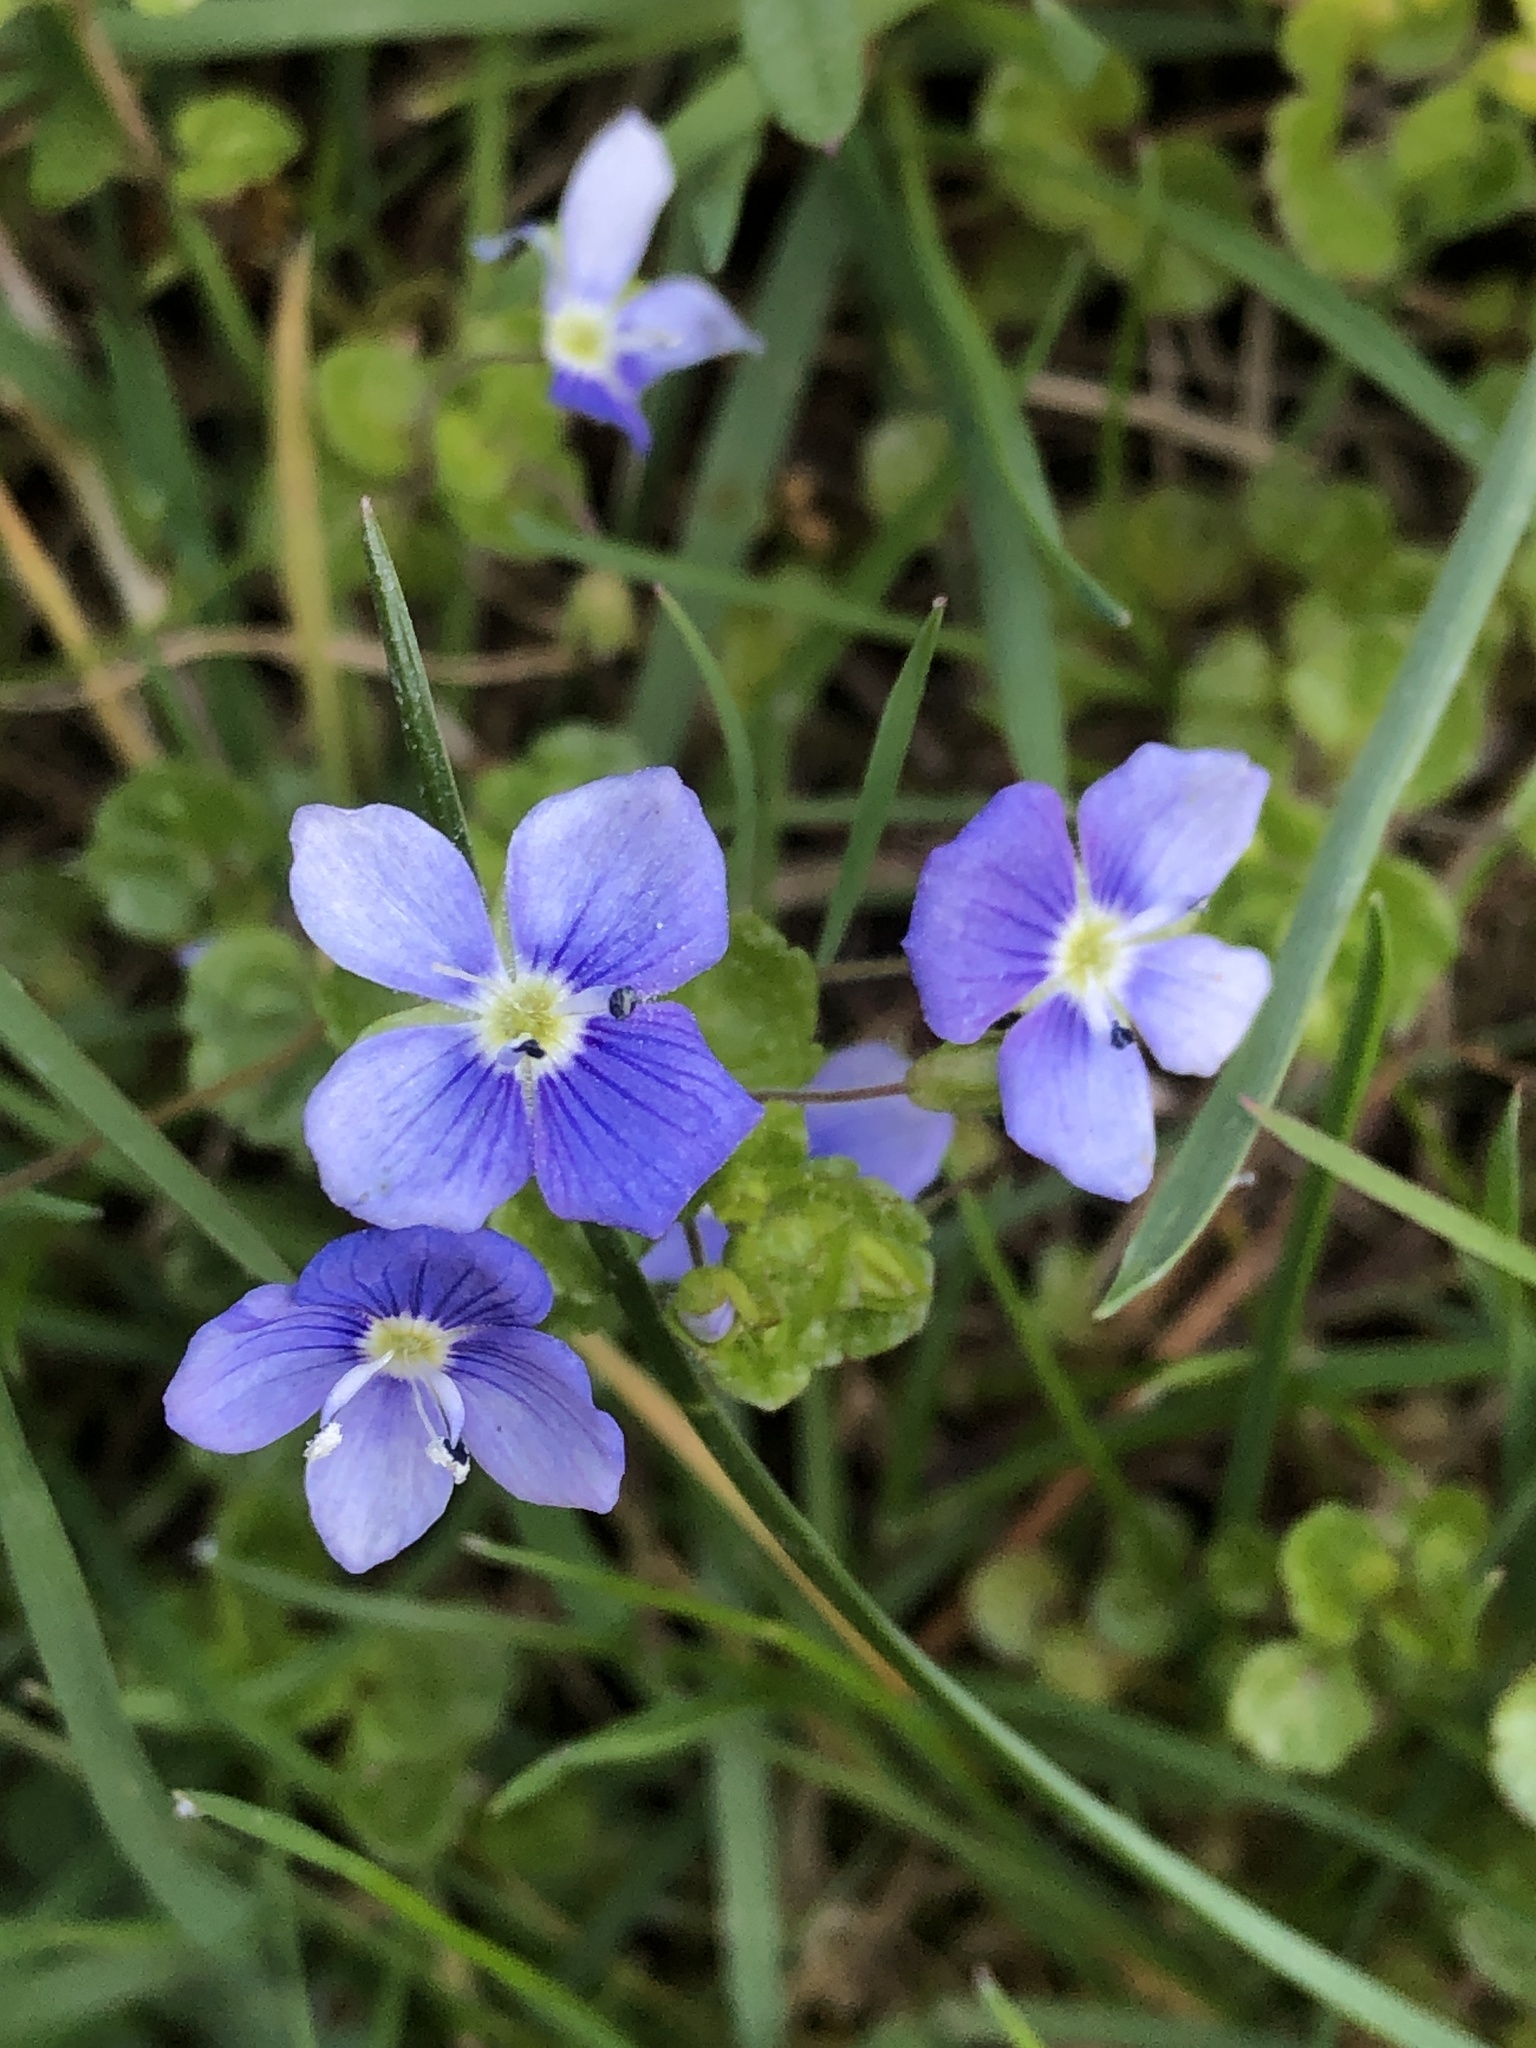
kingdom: Plantae
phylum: Tracheophyta
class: Magnoliopsida
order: Lamiales
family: Plantaginaceae
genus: Veronica
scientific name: Veronica filiformis
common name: Slender speedwell
